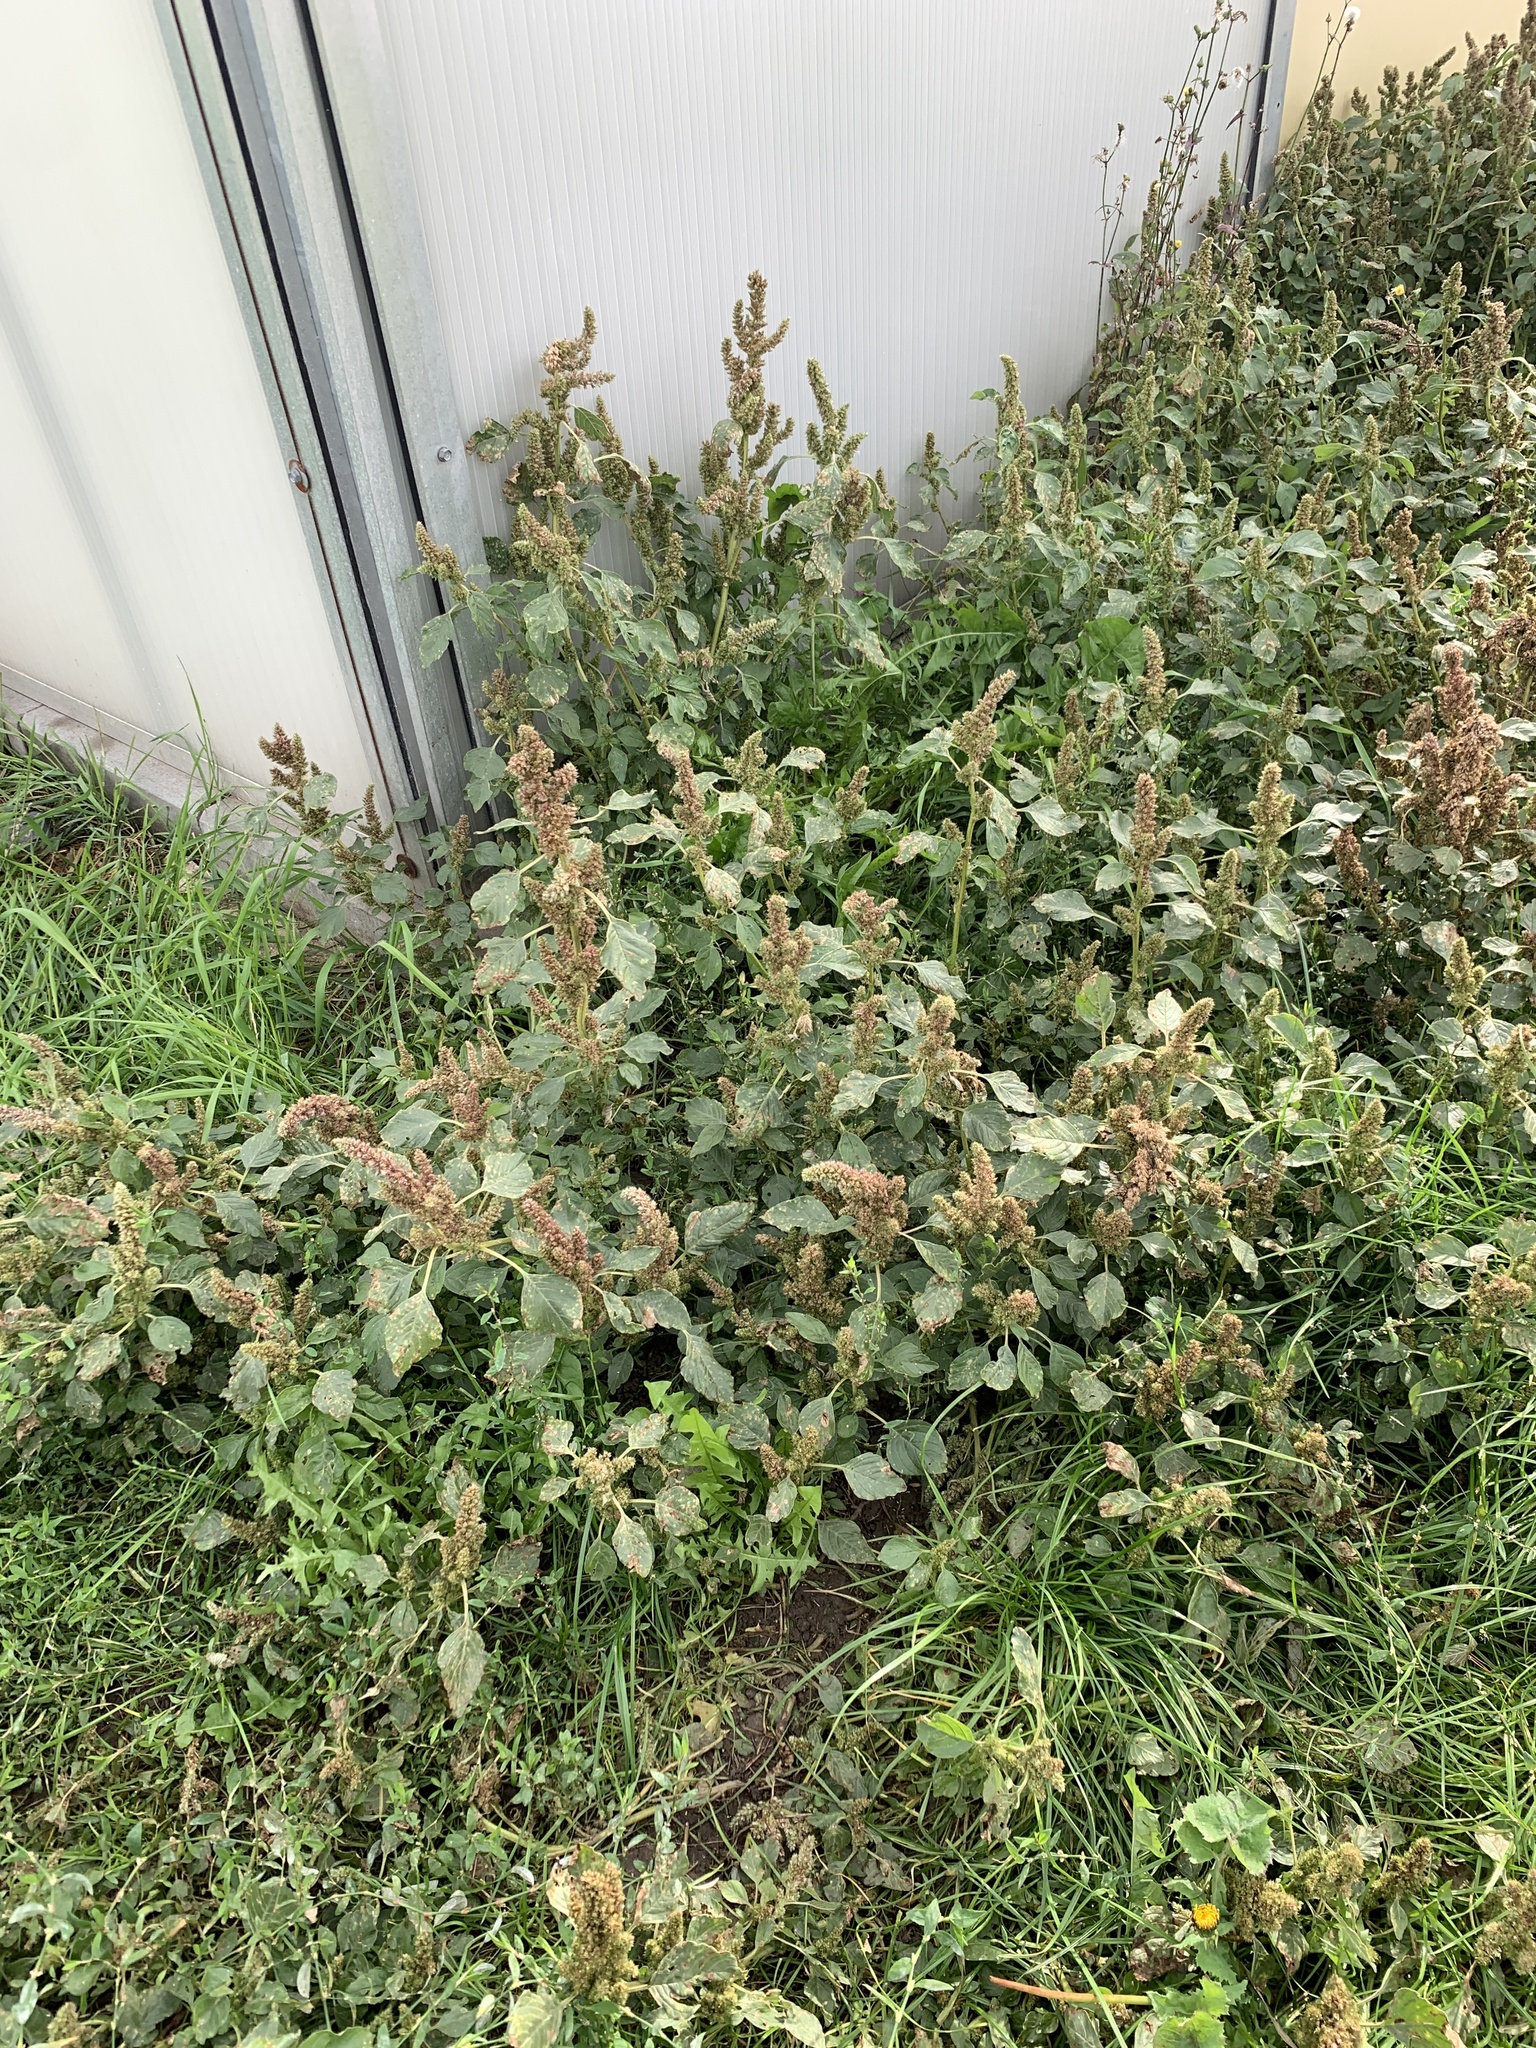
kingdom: Plantae
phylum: Tracheophyta
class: Magnoliopsida
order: Caryophyllales
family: Amaranthaceae
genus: Amaranthus
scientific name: Amaranthus retroflexus
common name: Redroot amaranth
